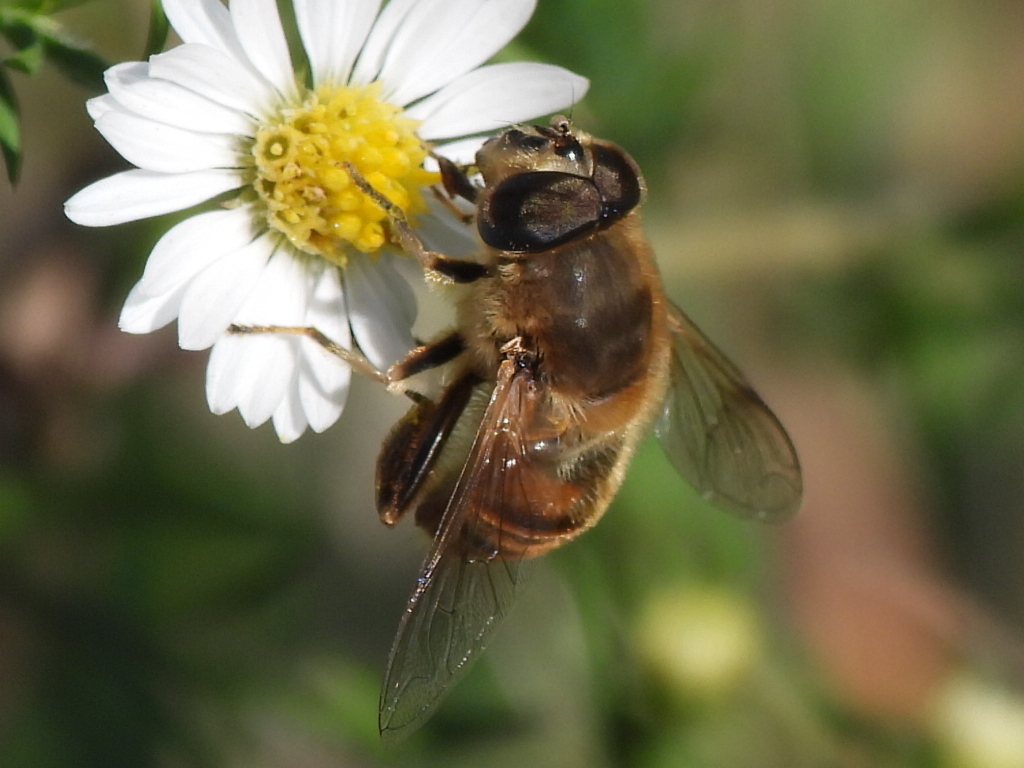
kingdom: Animalia
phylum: Arthropoda
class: Insecta
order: Diptera
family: Syrphidae
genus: Eristalis
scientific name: Eristalis tenax
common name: Drone fly
